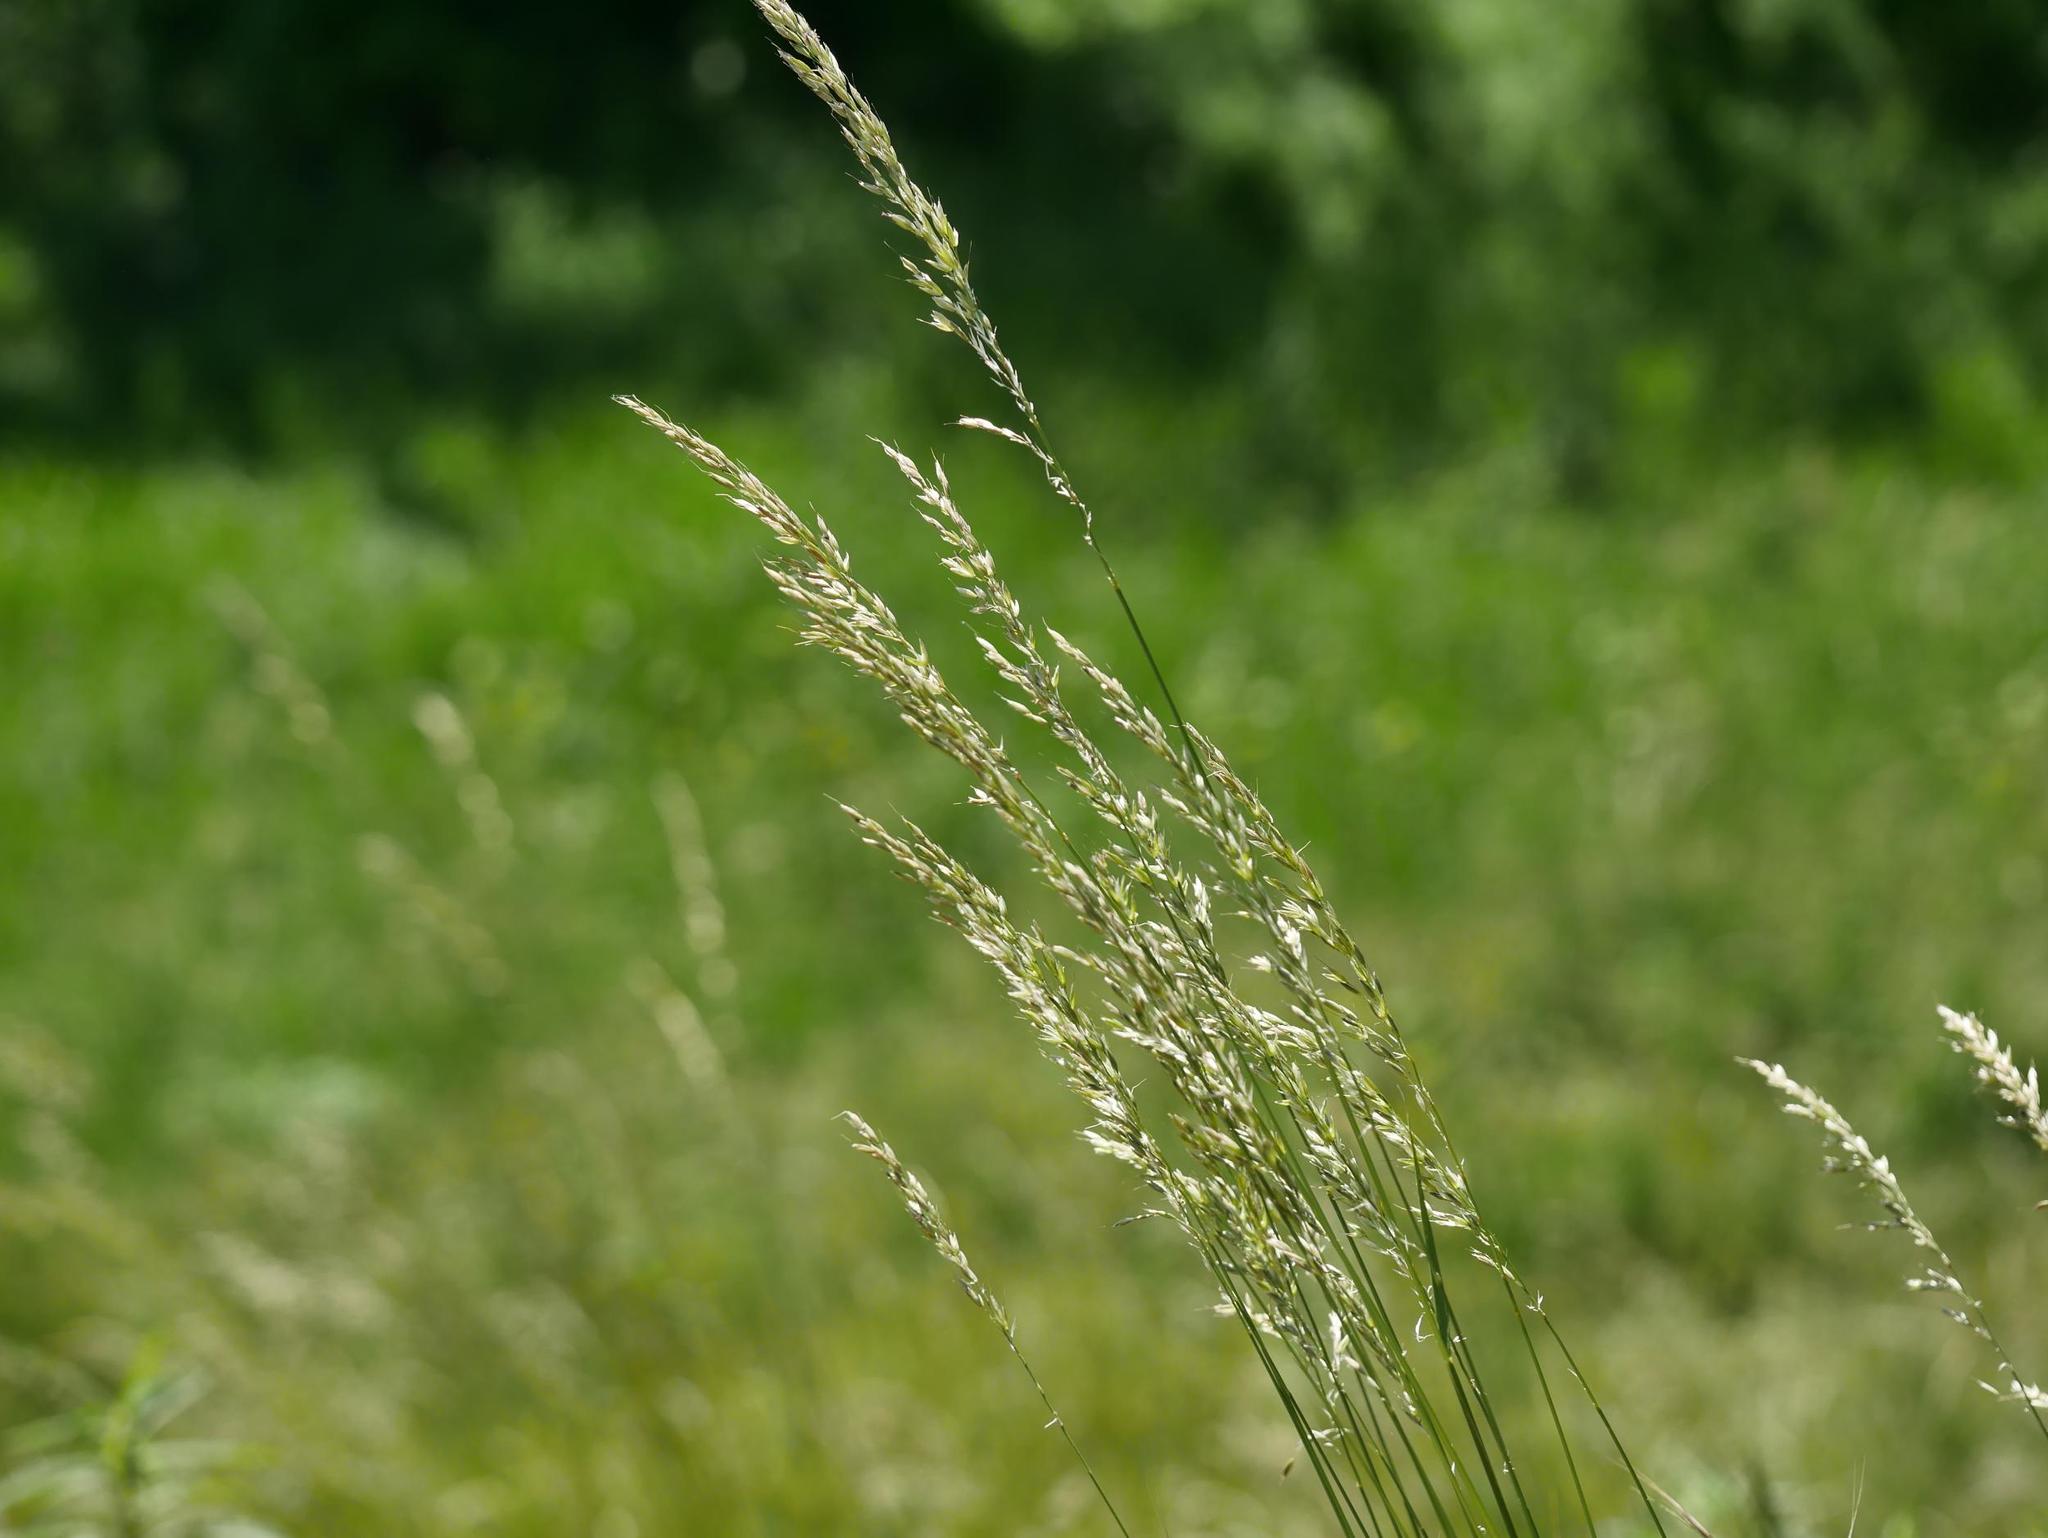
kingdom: Plantae
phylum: Tracheophyta
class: Liliopsida
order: Poales
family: Poaceae
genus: Arrhenatherum
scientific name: Arrhenatherum elatius
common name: Tall oatgrass
